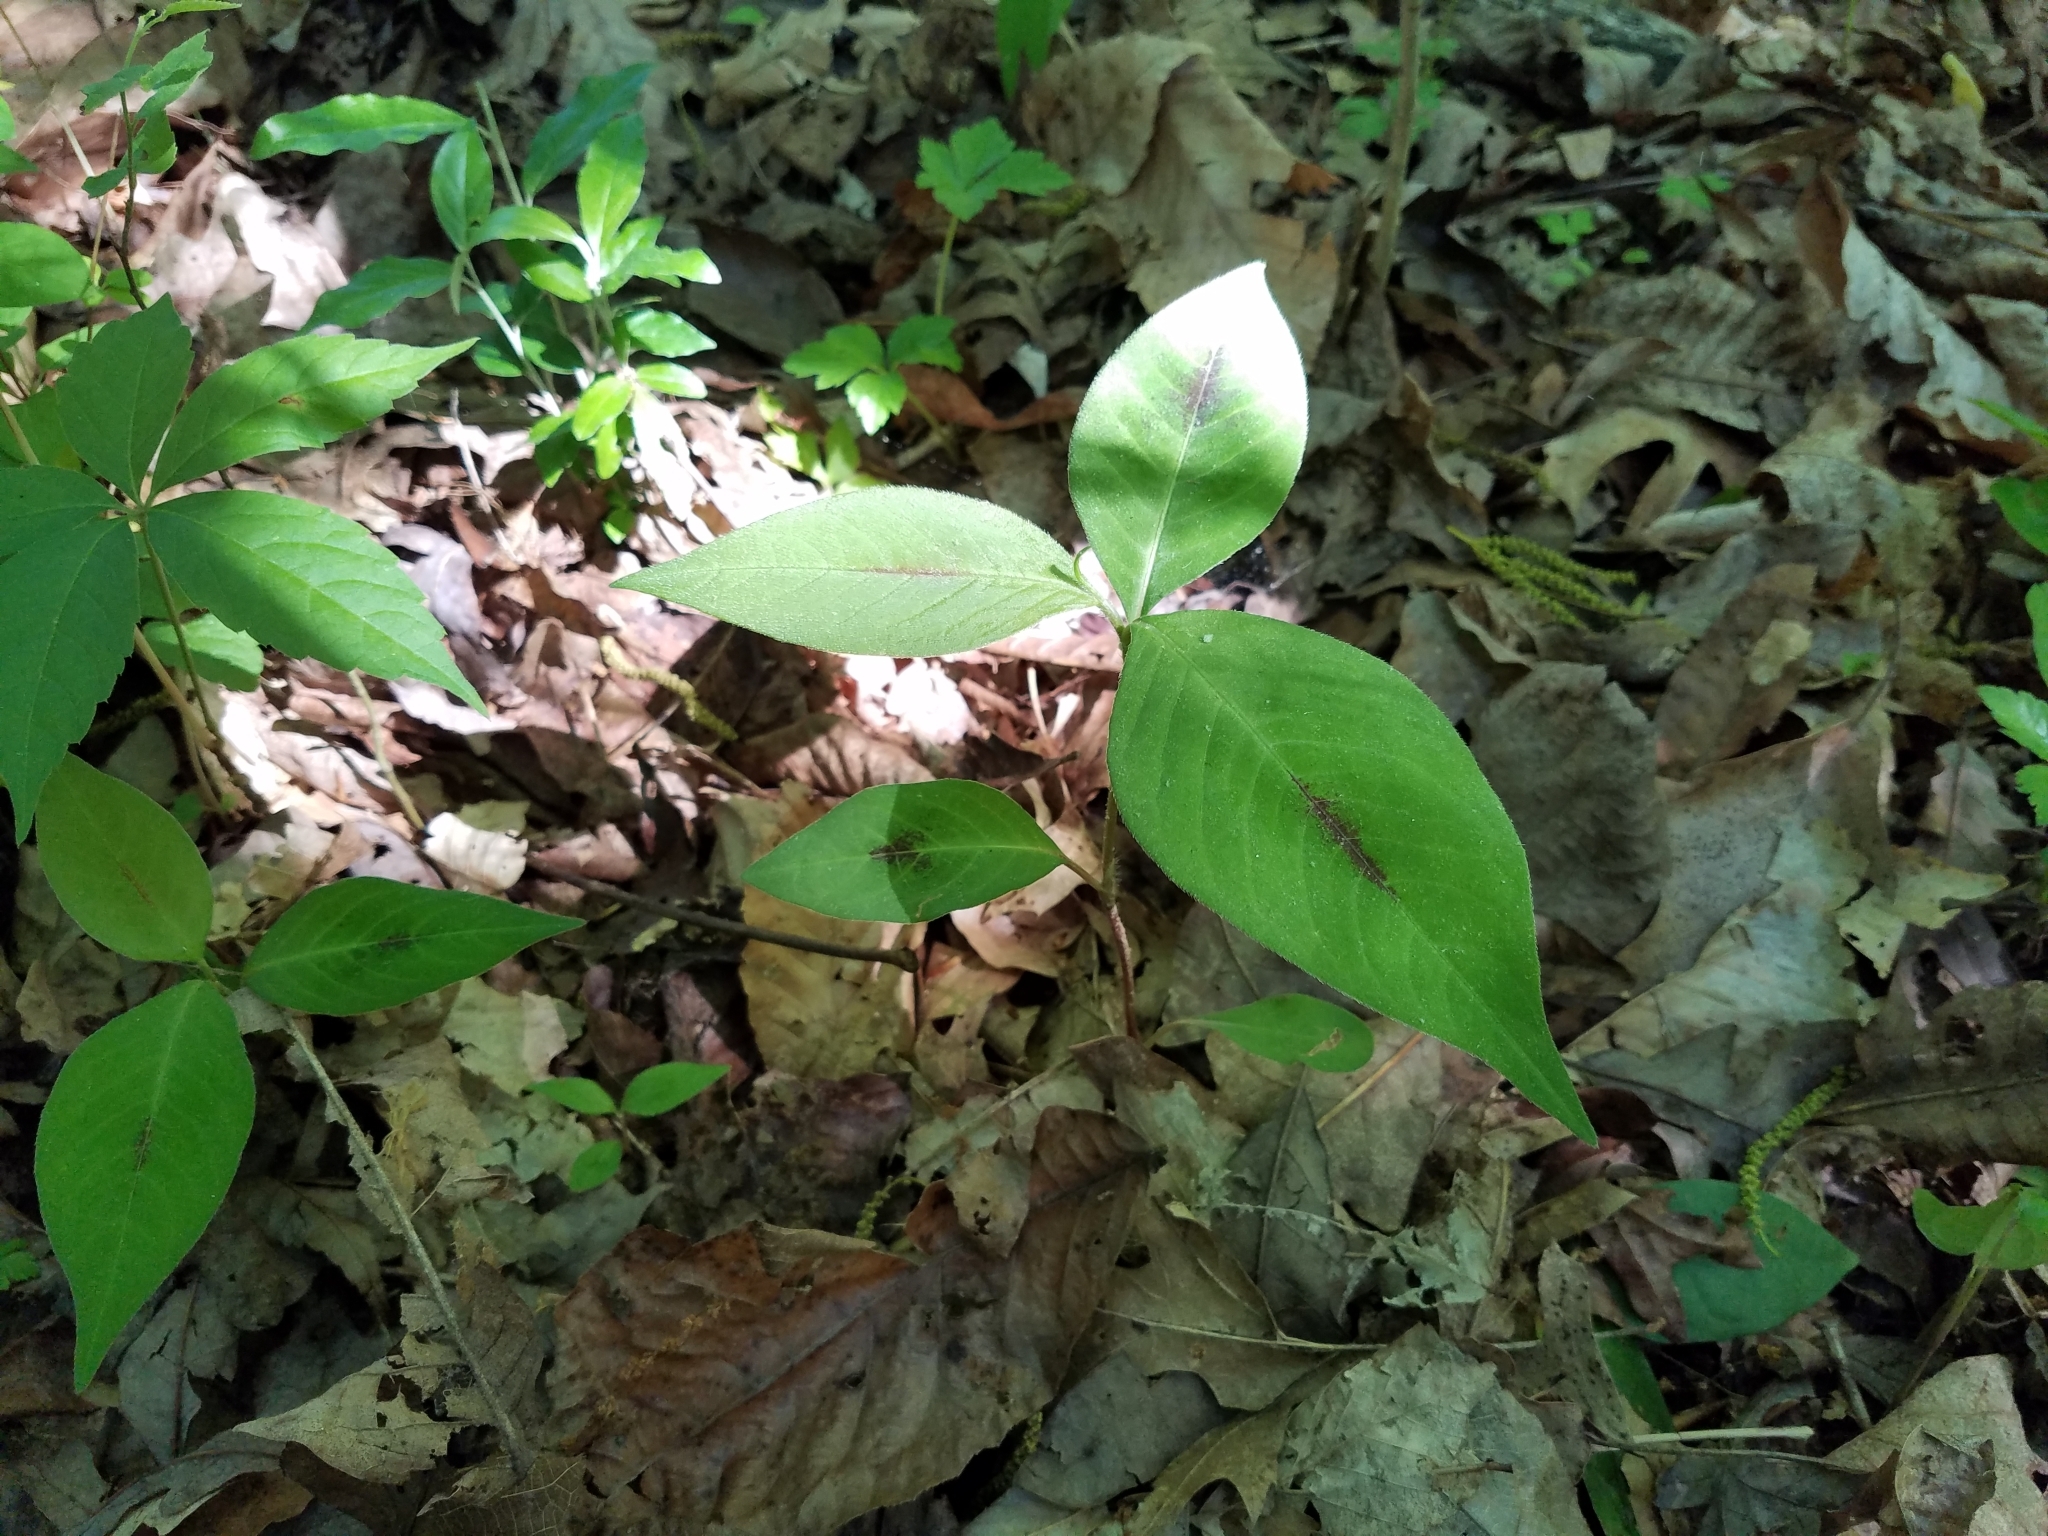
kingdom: Plantae
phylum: Tracheophyta
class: Magnoliopsida
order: Caryophyllales
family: Polygonaceae
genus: Persicaria
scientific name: Persicaria virginiana
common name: Jumpseed
